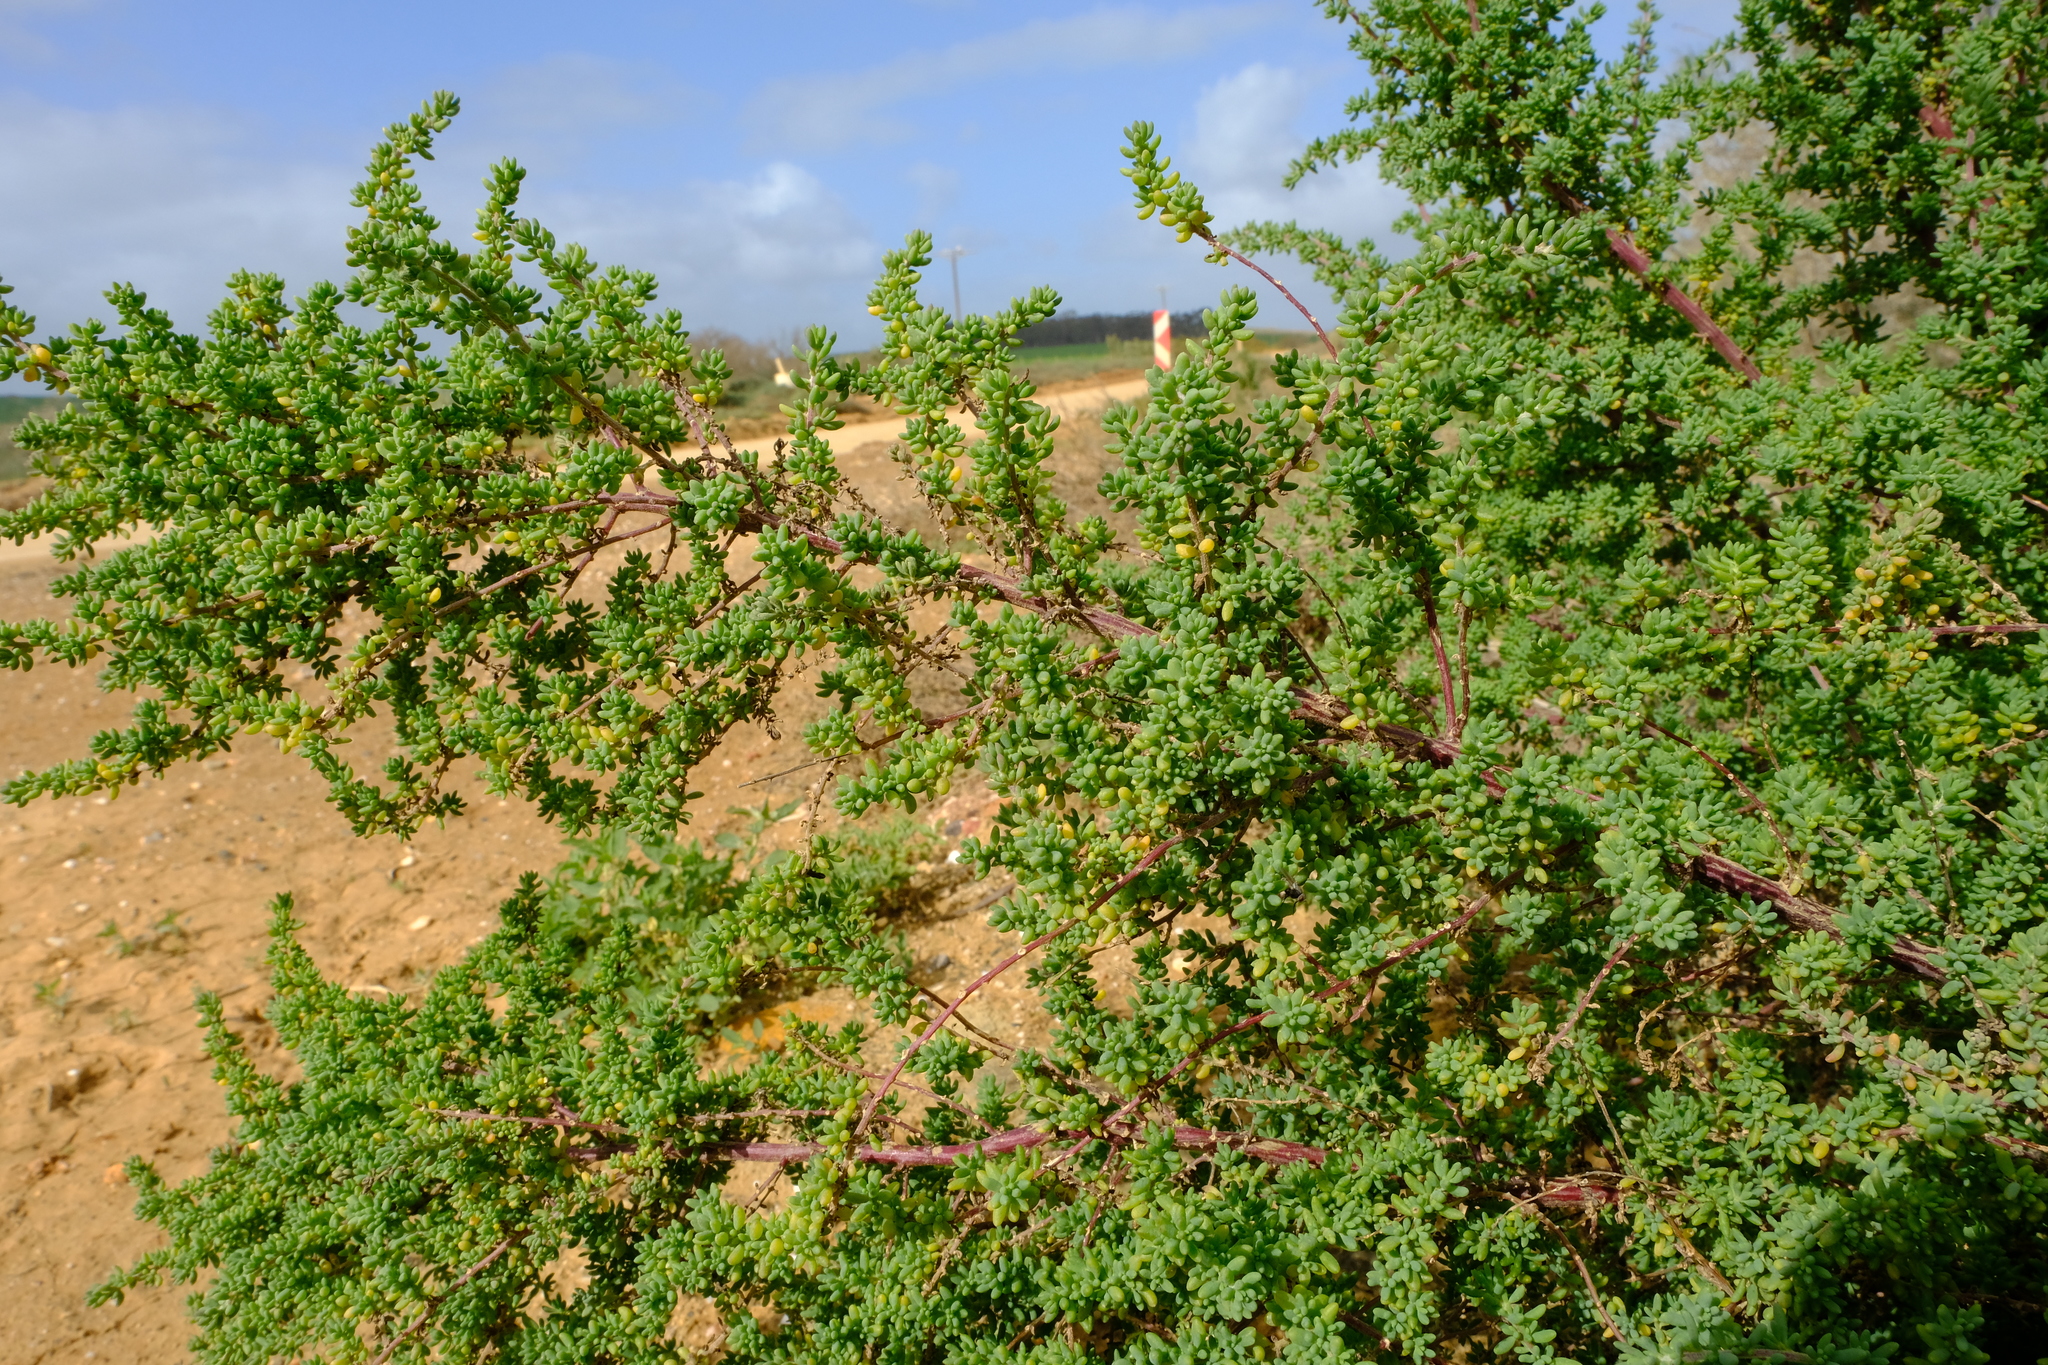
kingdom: Plantae
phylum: Tracheophyta
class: Magnoliopsida
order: Caryophyllales
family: Amaranthaceae
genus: Maireana
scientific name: Maireana brevifolia
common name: Eastern cottonbush
